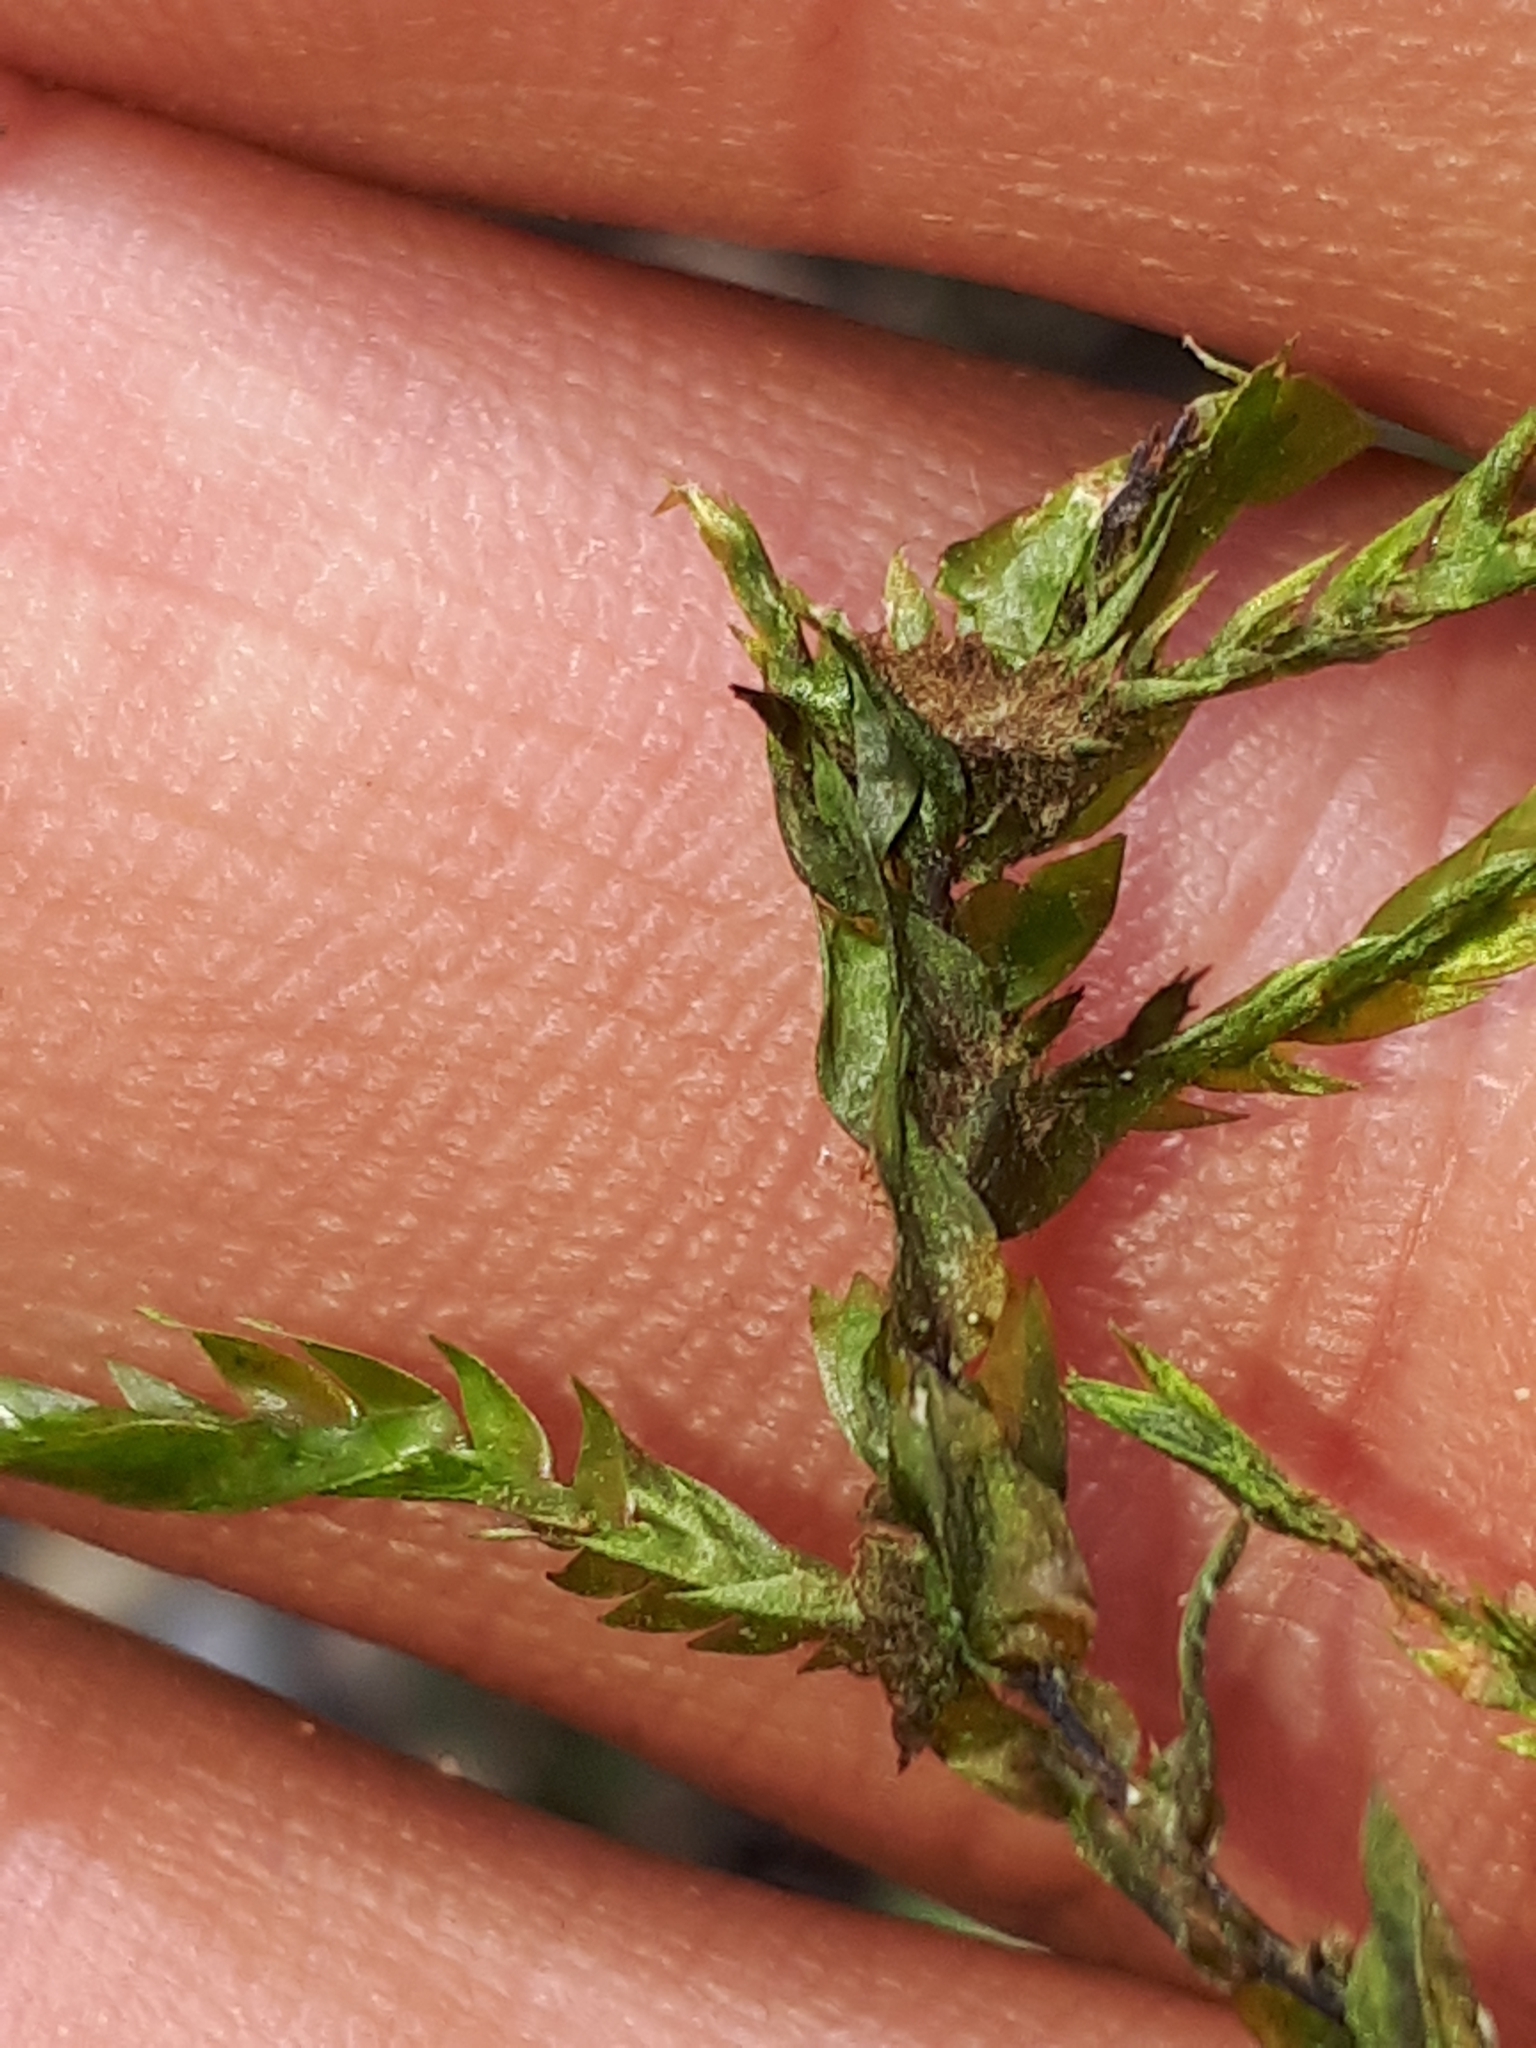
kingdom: Plantae
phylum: Bryophyta
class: Bryopsida
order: Hypnales
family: Fontinalaceae
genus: Fontinalis
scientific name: Fontinalis antipyretica
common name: Greater water-moss
